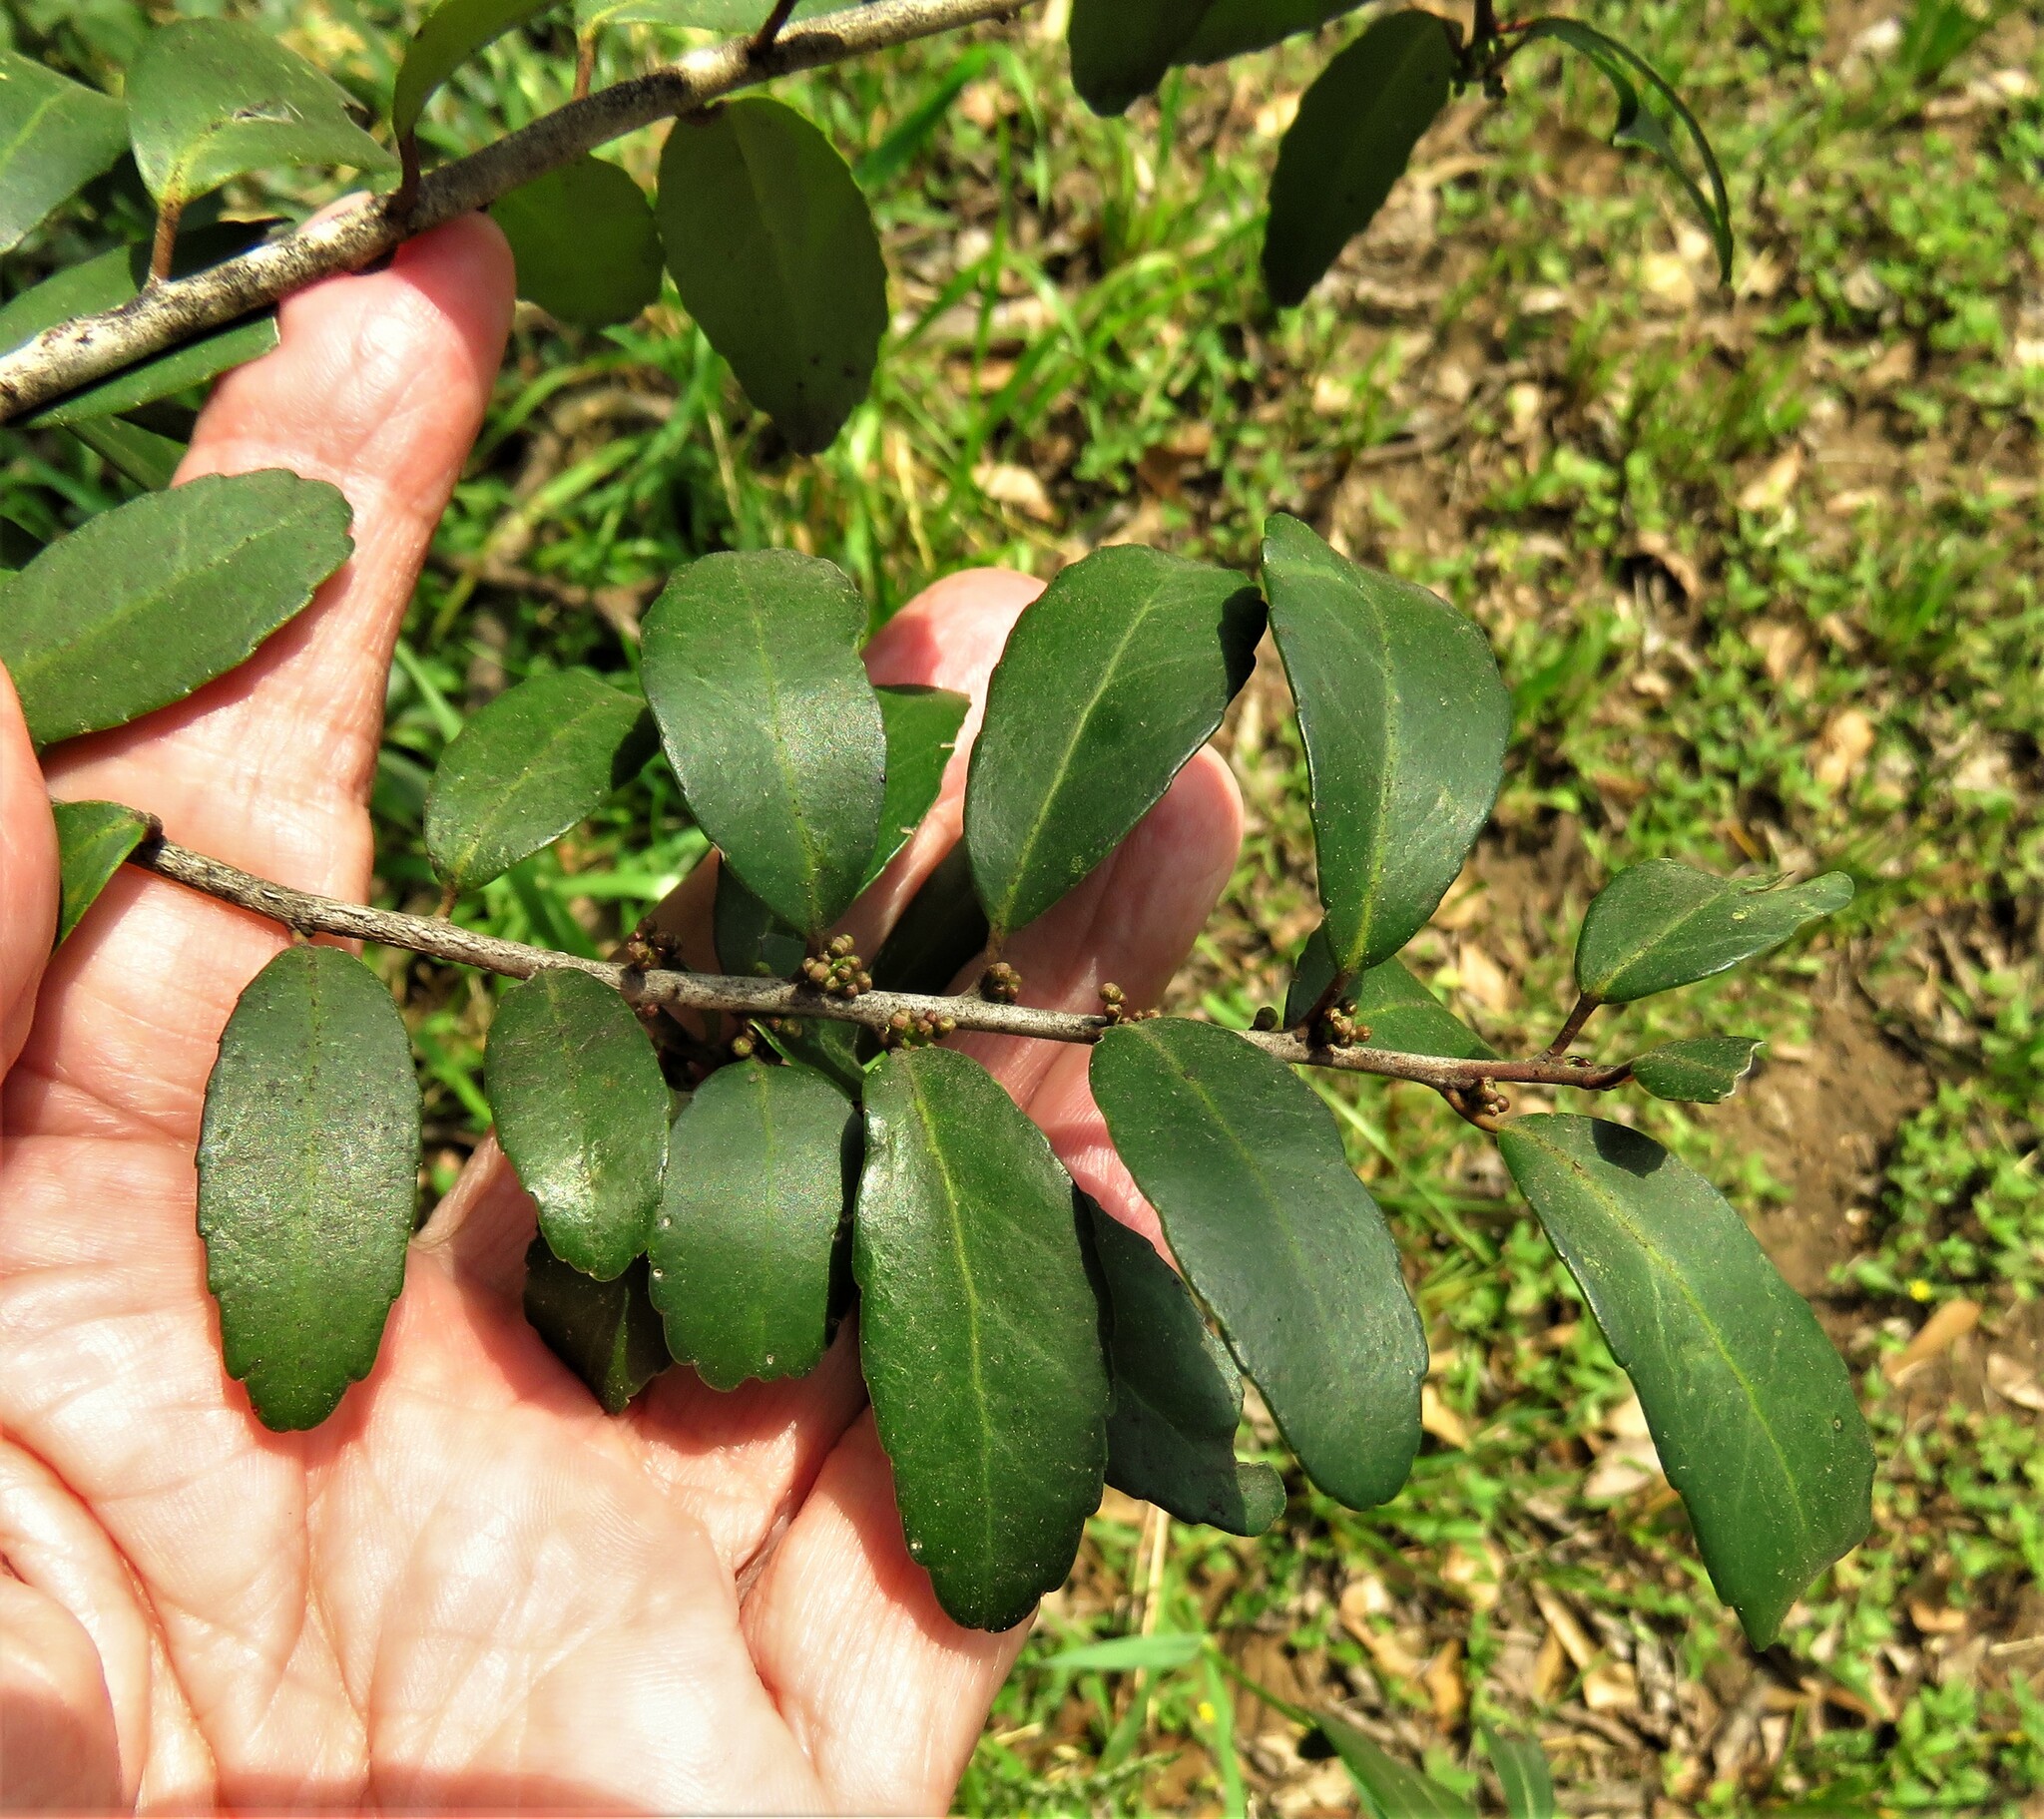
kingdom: Plantae
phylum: Tracheophyta
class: Magnoliopsida
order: Aquifoliales
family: Aquifoliaceae
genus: Ilex
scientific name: Ilex vomitoria
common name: Yaupon holly
